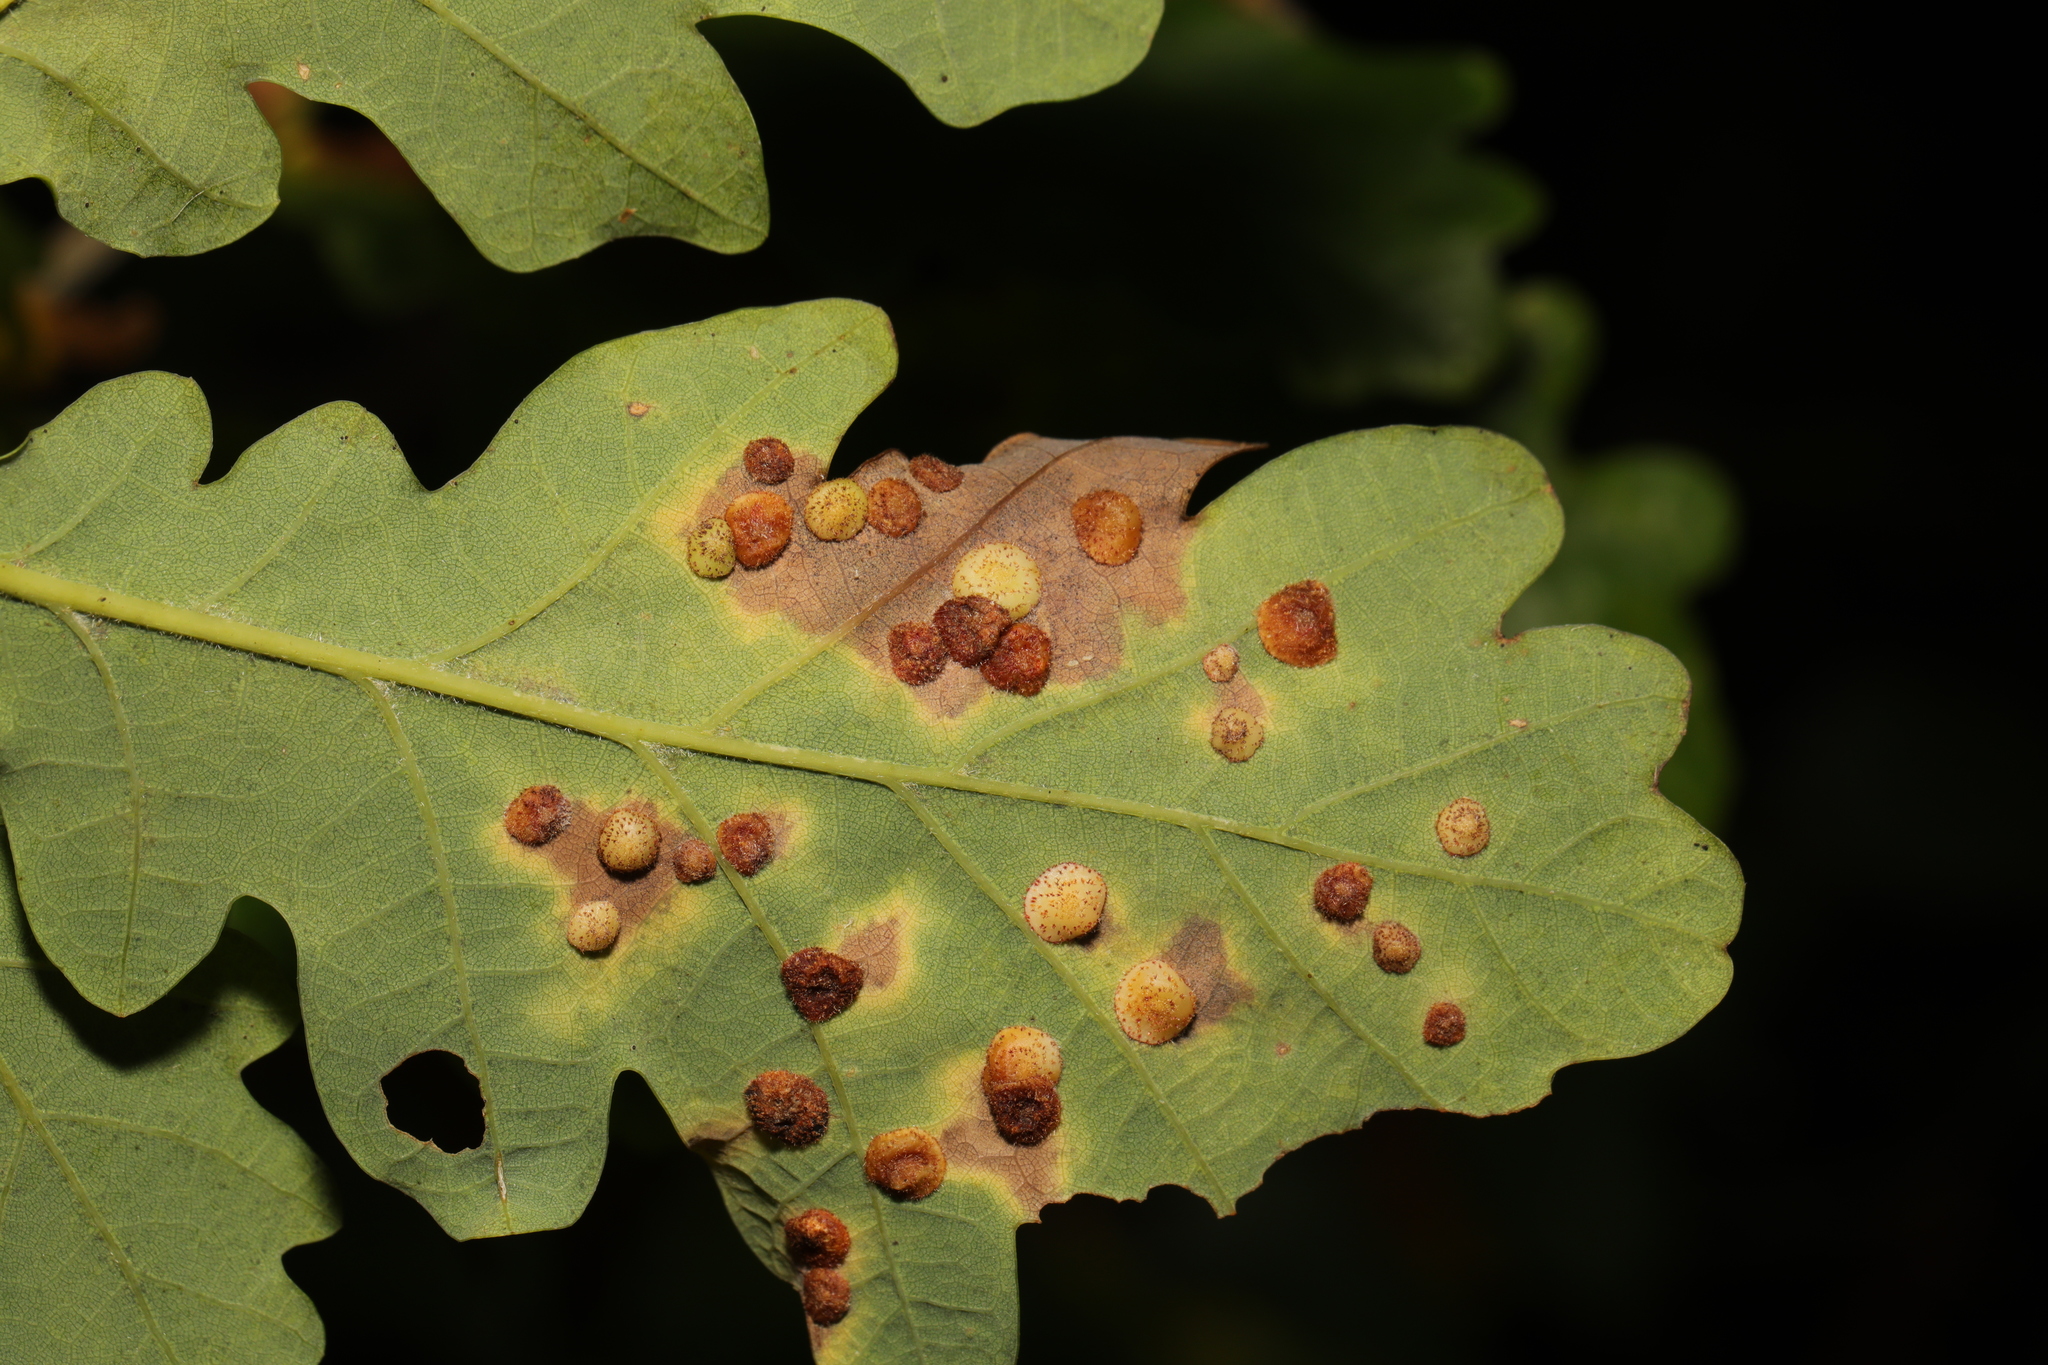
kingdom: Animalia
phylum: Arthropoda
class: Insecta
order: Hymenoptera
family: Cynipidae
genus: Neuroterus
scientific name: Neuroterus quercusbaccarum
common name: Common spangle gall
